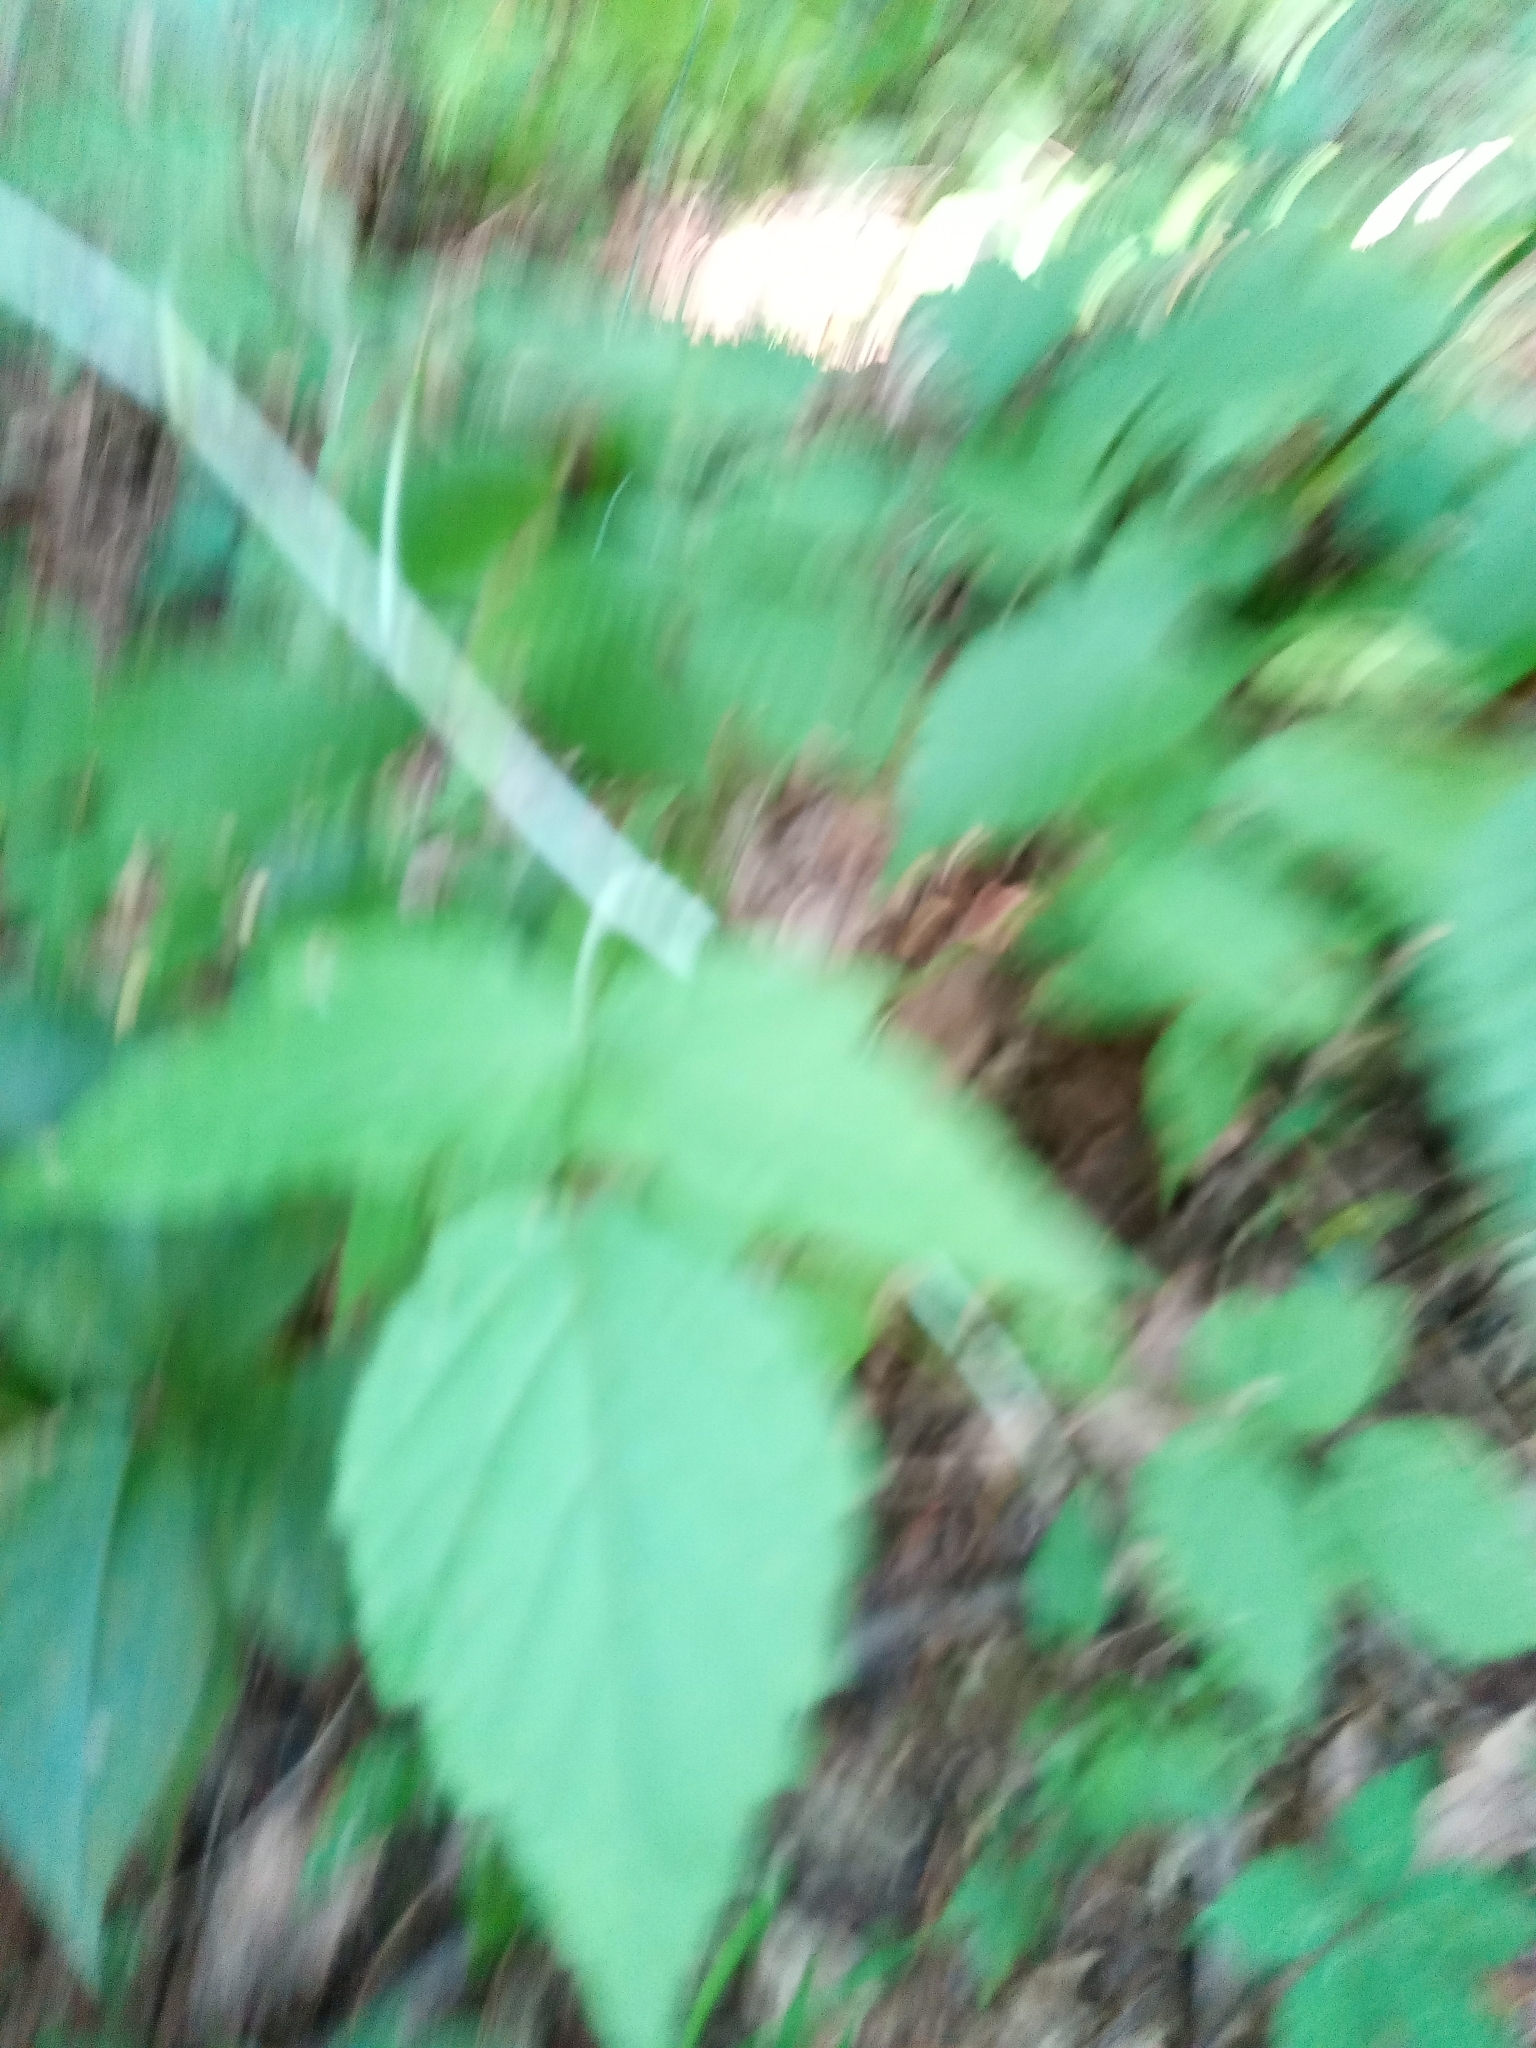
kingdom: Plantae
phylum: Tracheophyta
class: Magnoliopsida
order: Rosales
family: Rosaceae
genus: Rubus
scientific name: Rubus occidentalis
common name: Black raspberry
